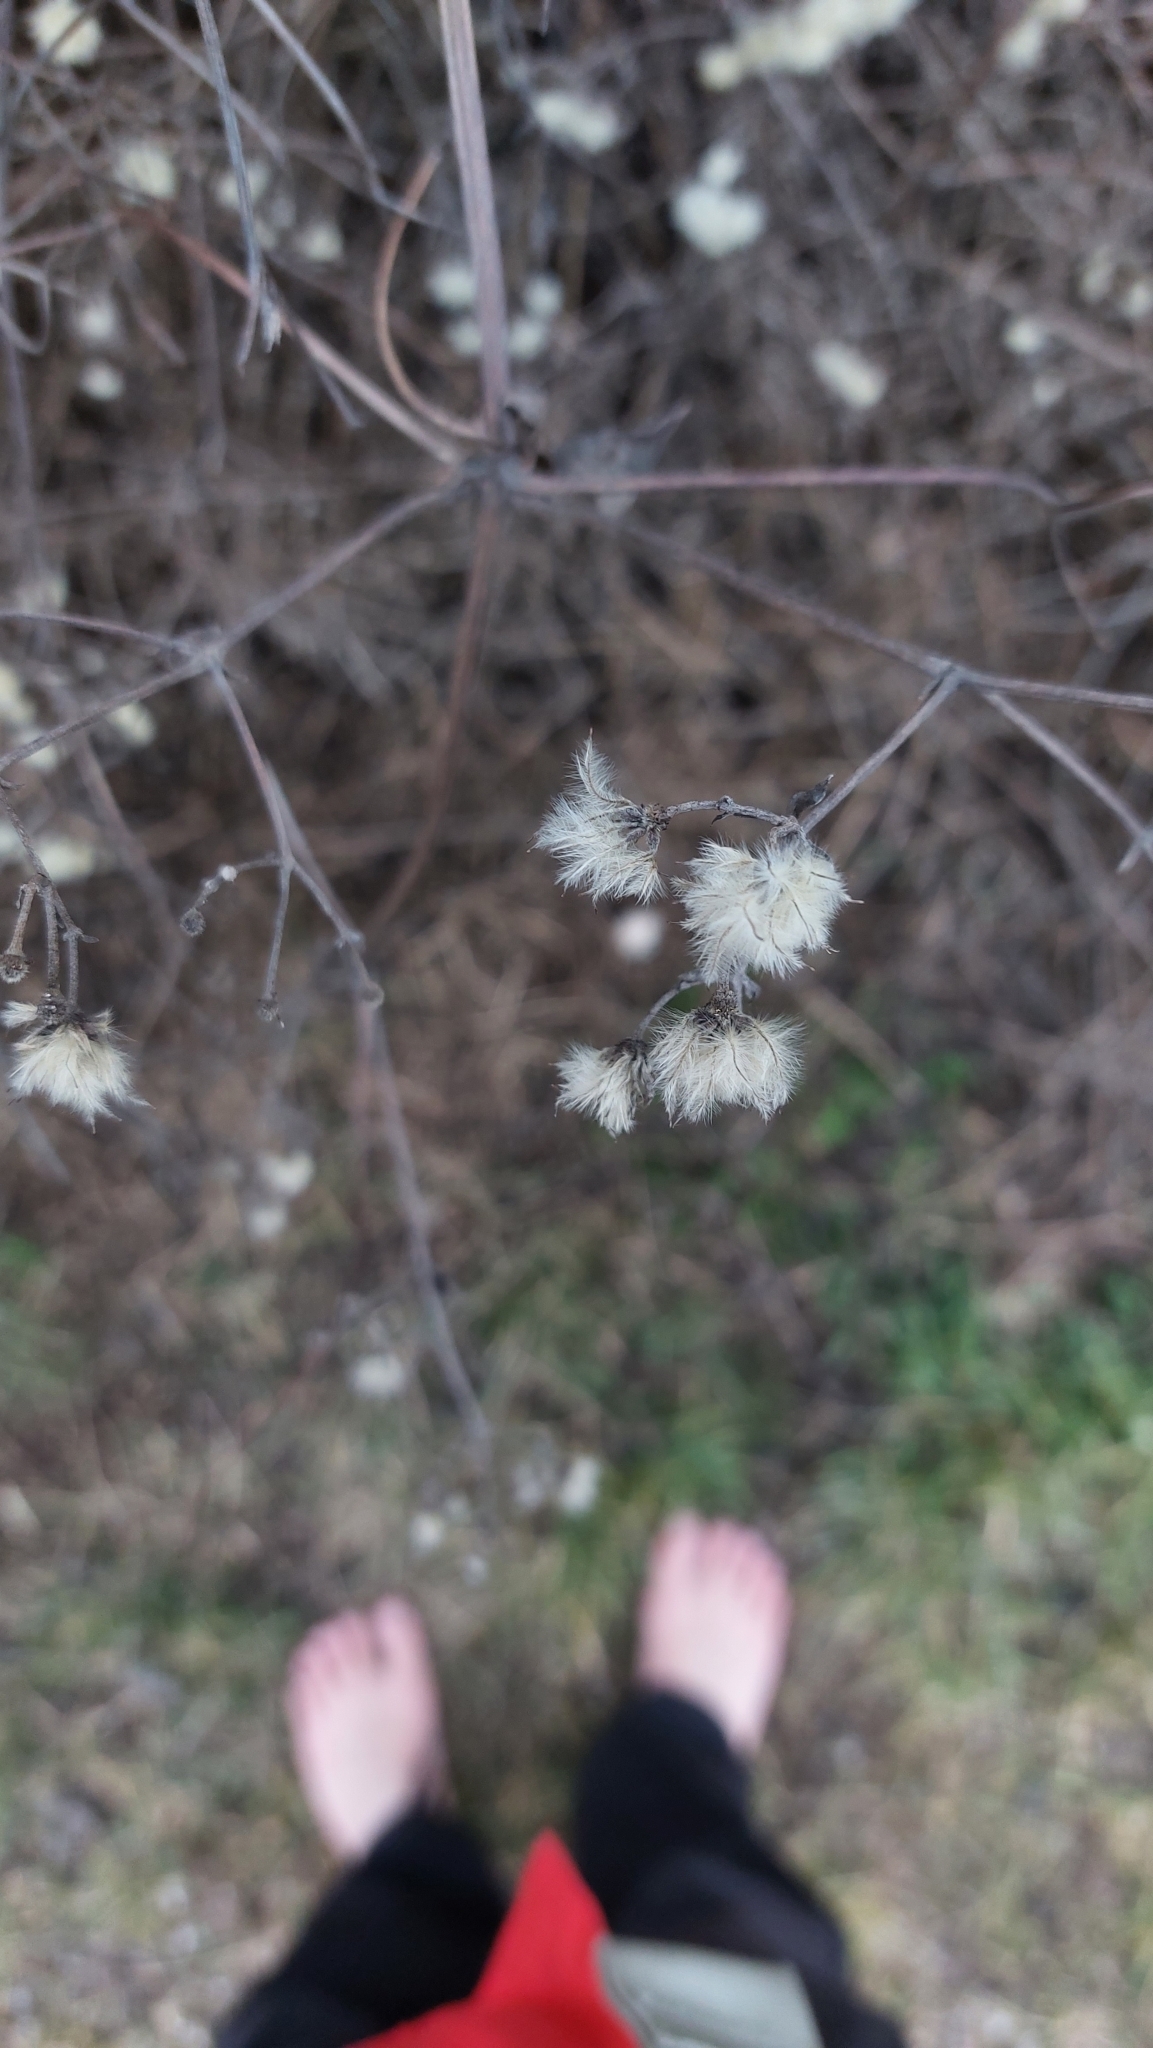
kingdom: Plantae
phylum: Tracheophyta
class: Magnoliopsida
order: Ranunculales
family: Ranunculaceae
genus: Clematis
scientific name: Clematis vitalba
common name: Evergreen clematis
